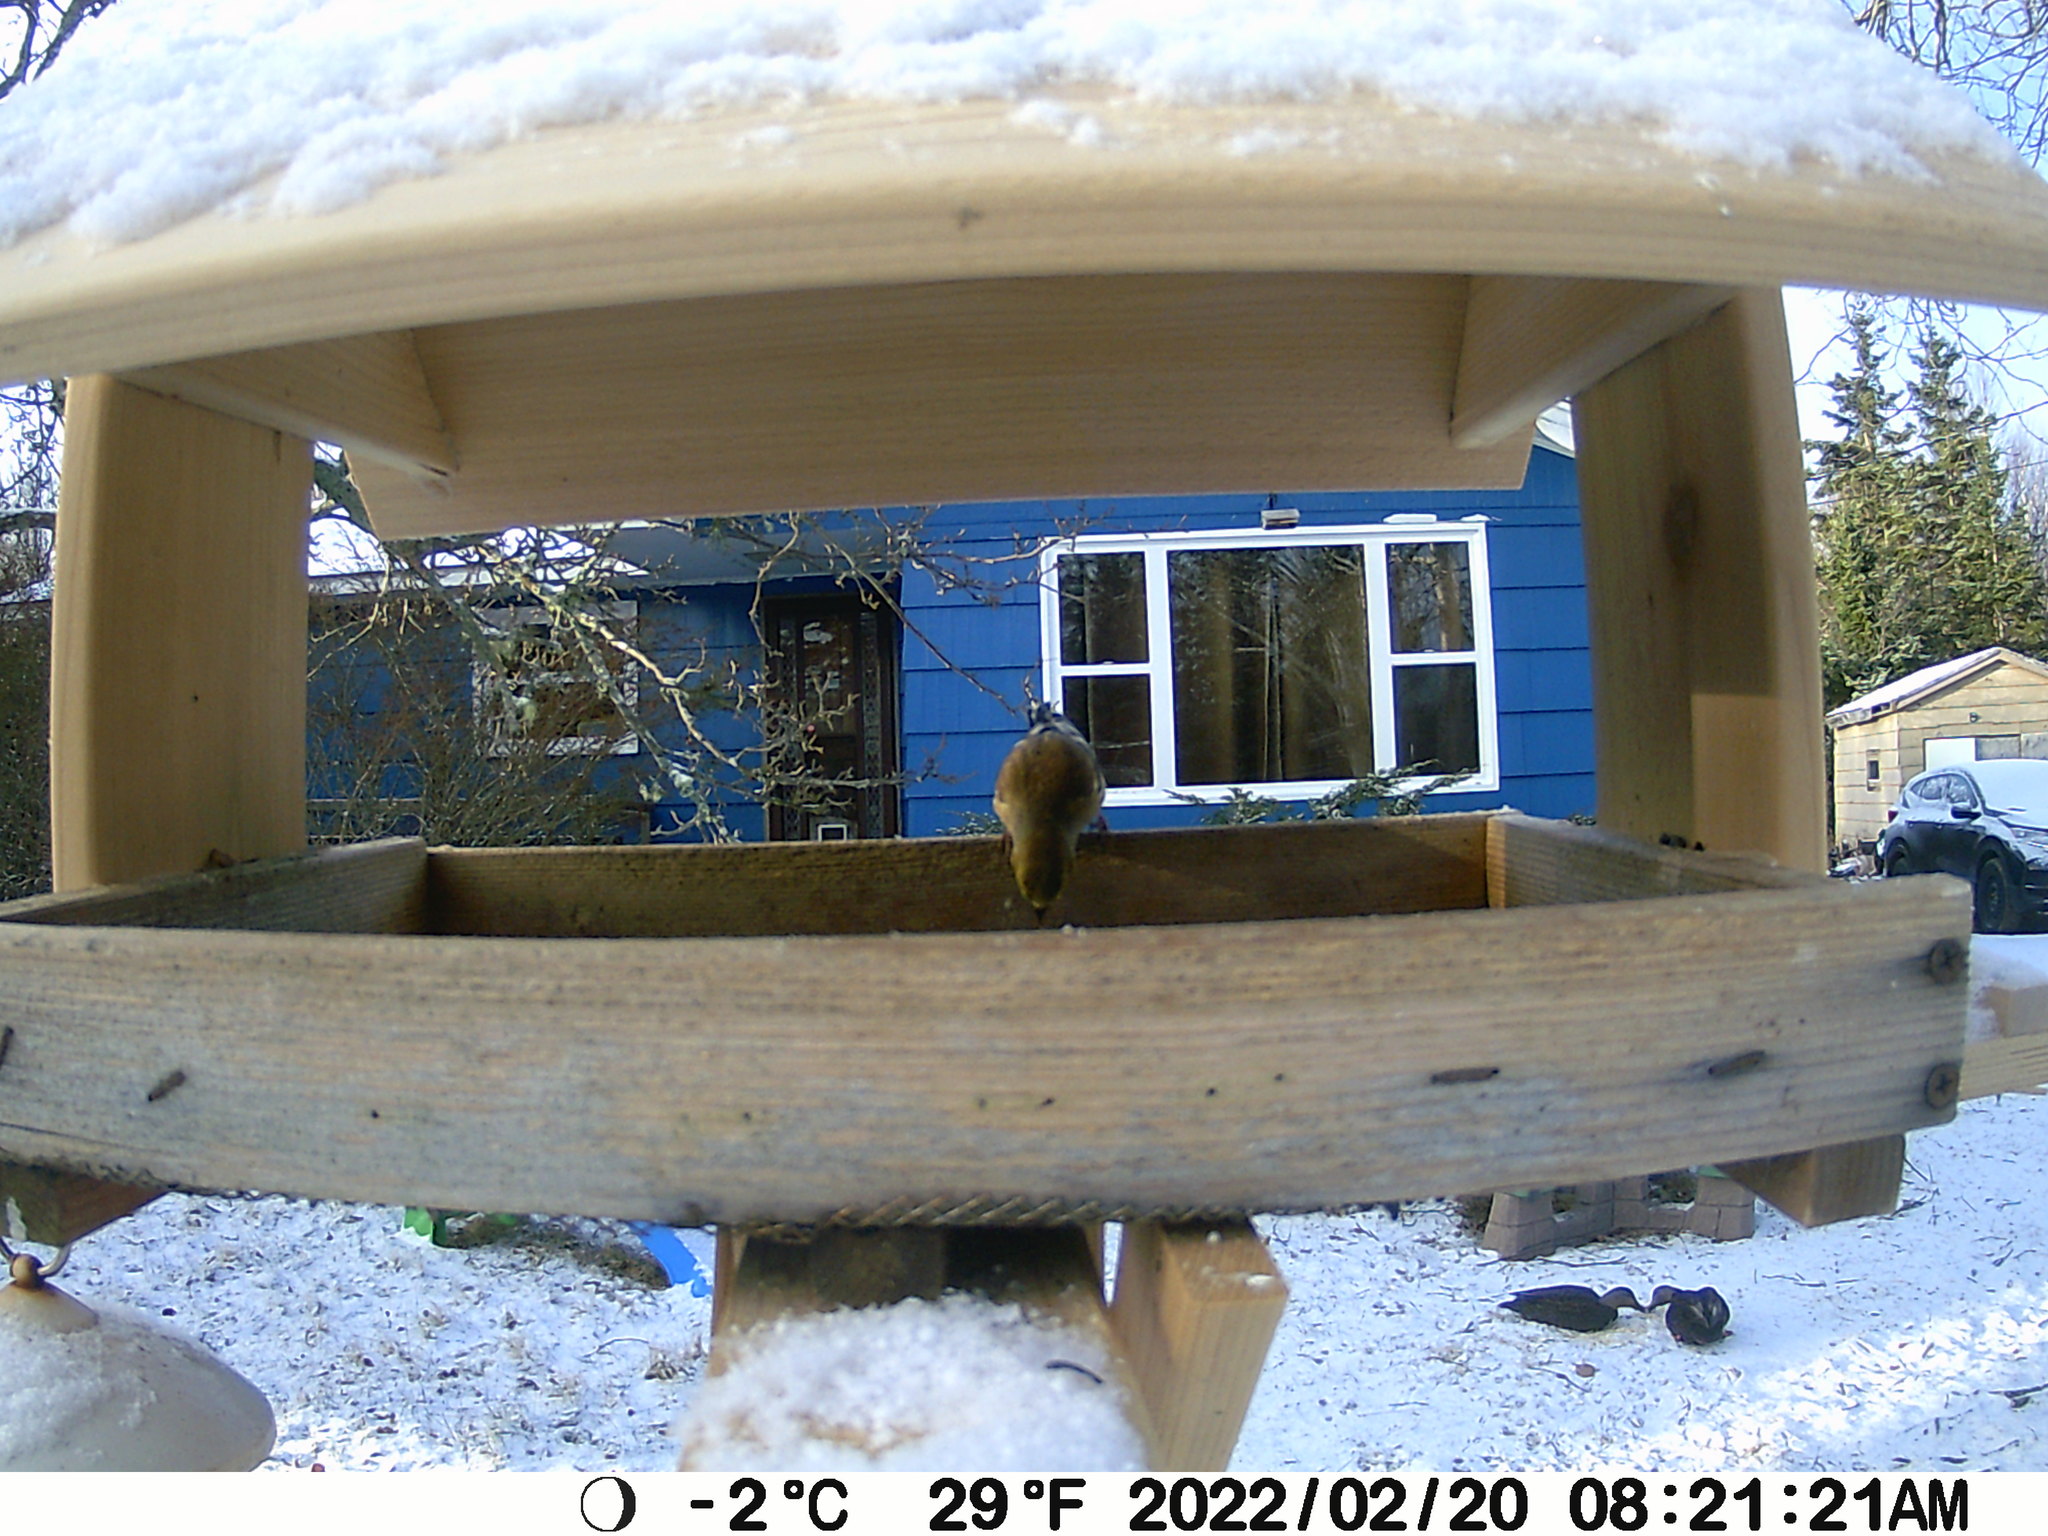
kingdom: Animalia
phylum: Chordata
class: Aves
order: Anseriformes
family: Anatidae
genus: Anas
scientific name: Anas rubripes
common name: American black duck
